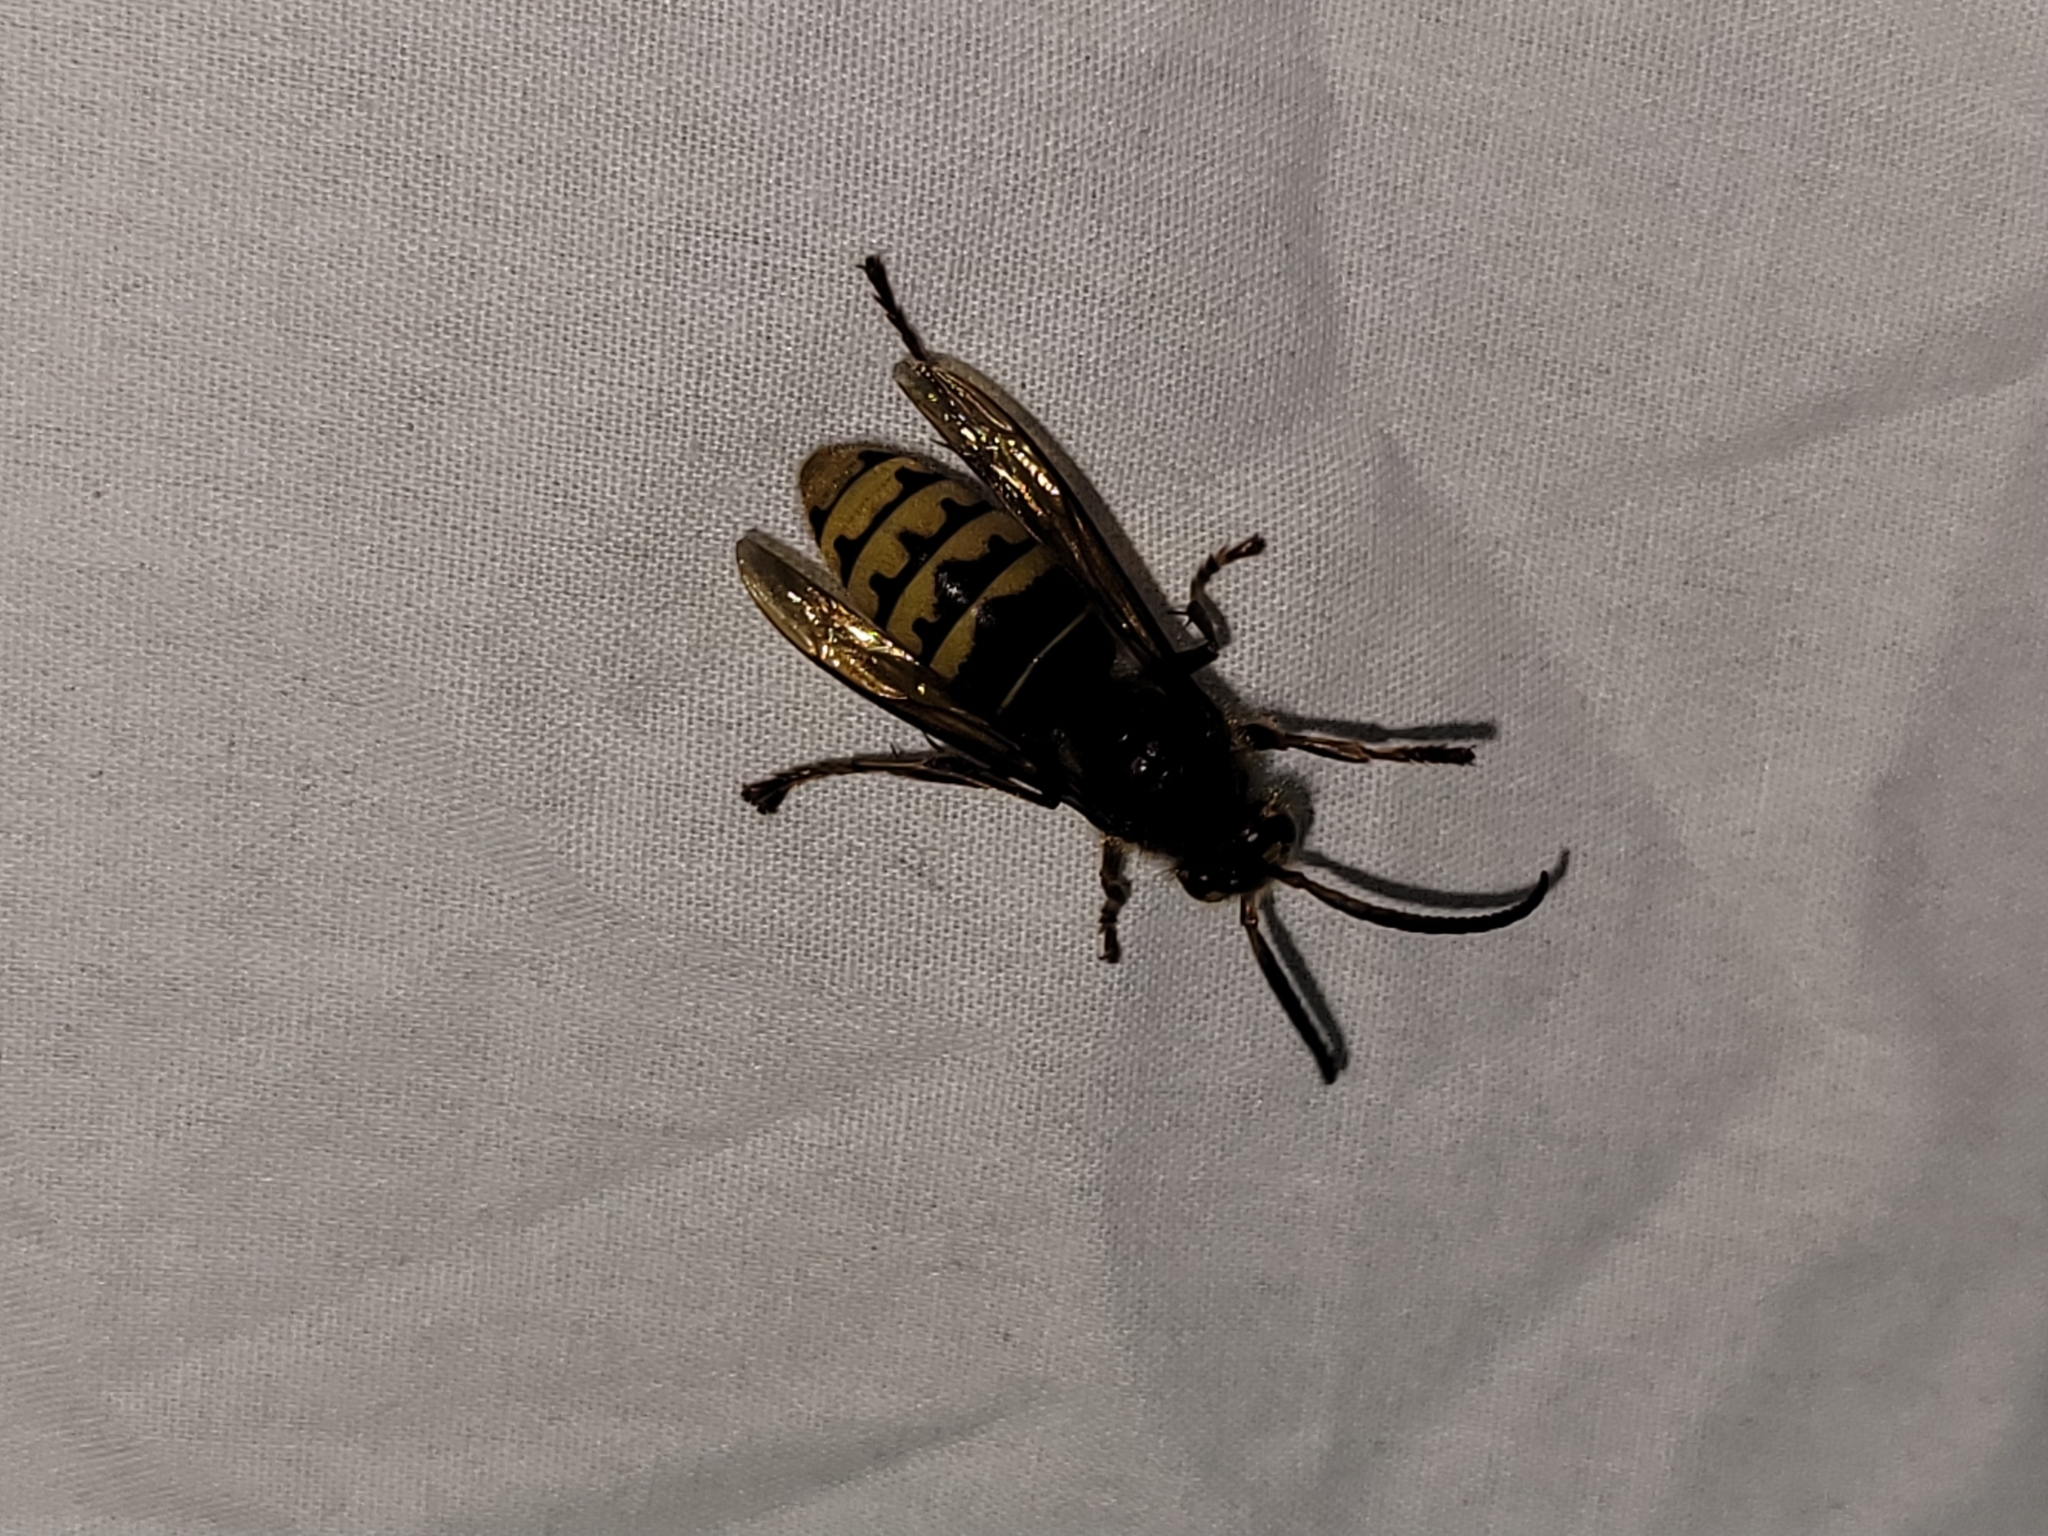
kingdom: Animalia
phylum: Arthropoda
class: Insecta
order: Hymenoptera
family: Vespidae
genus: Vespa
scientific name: Vespa crabro
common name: Hornet
